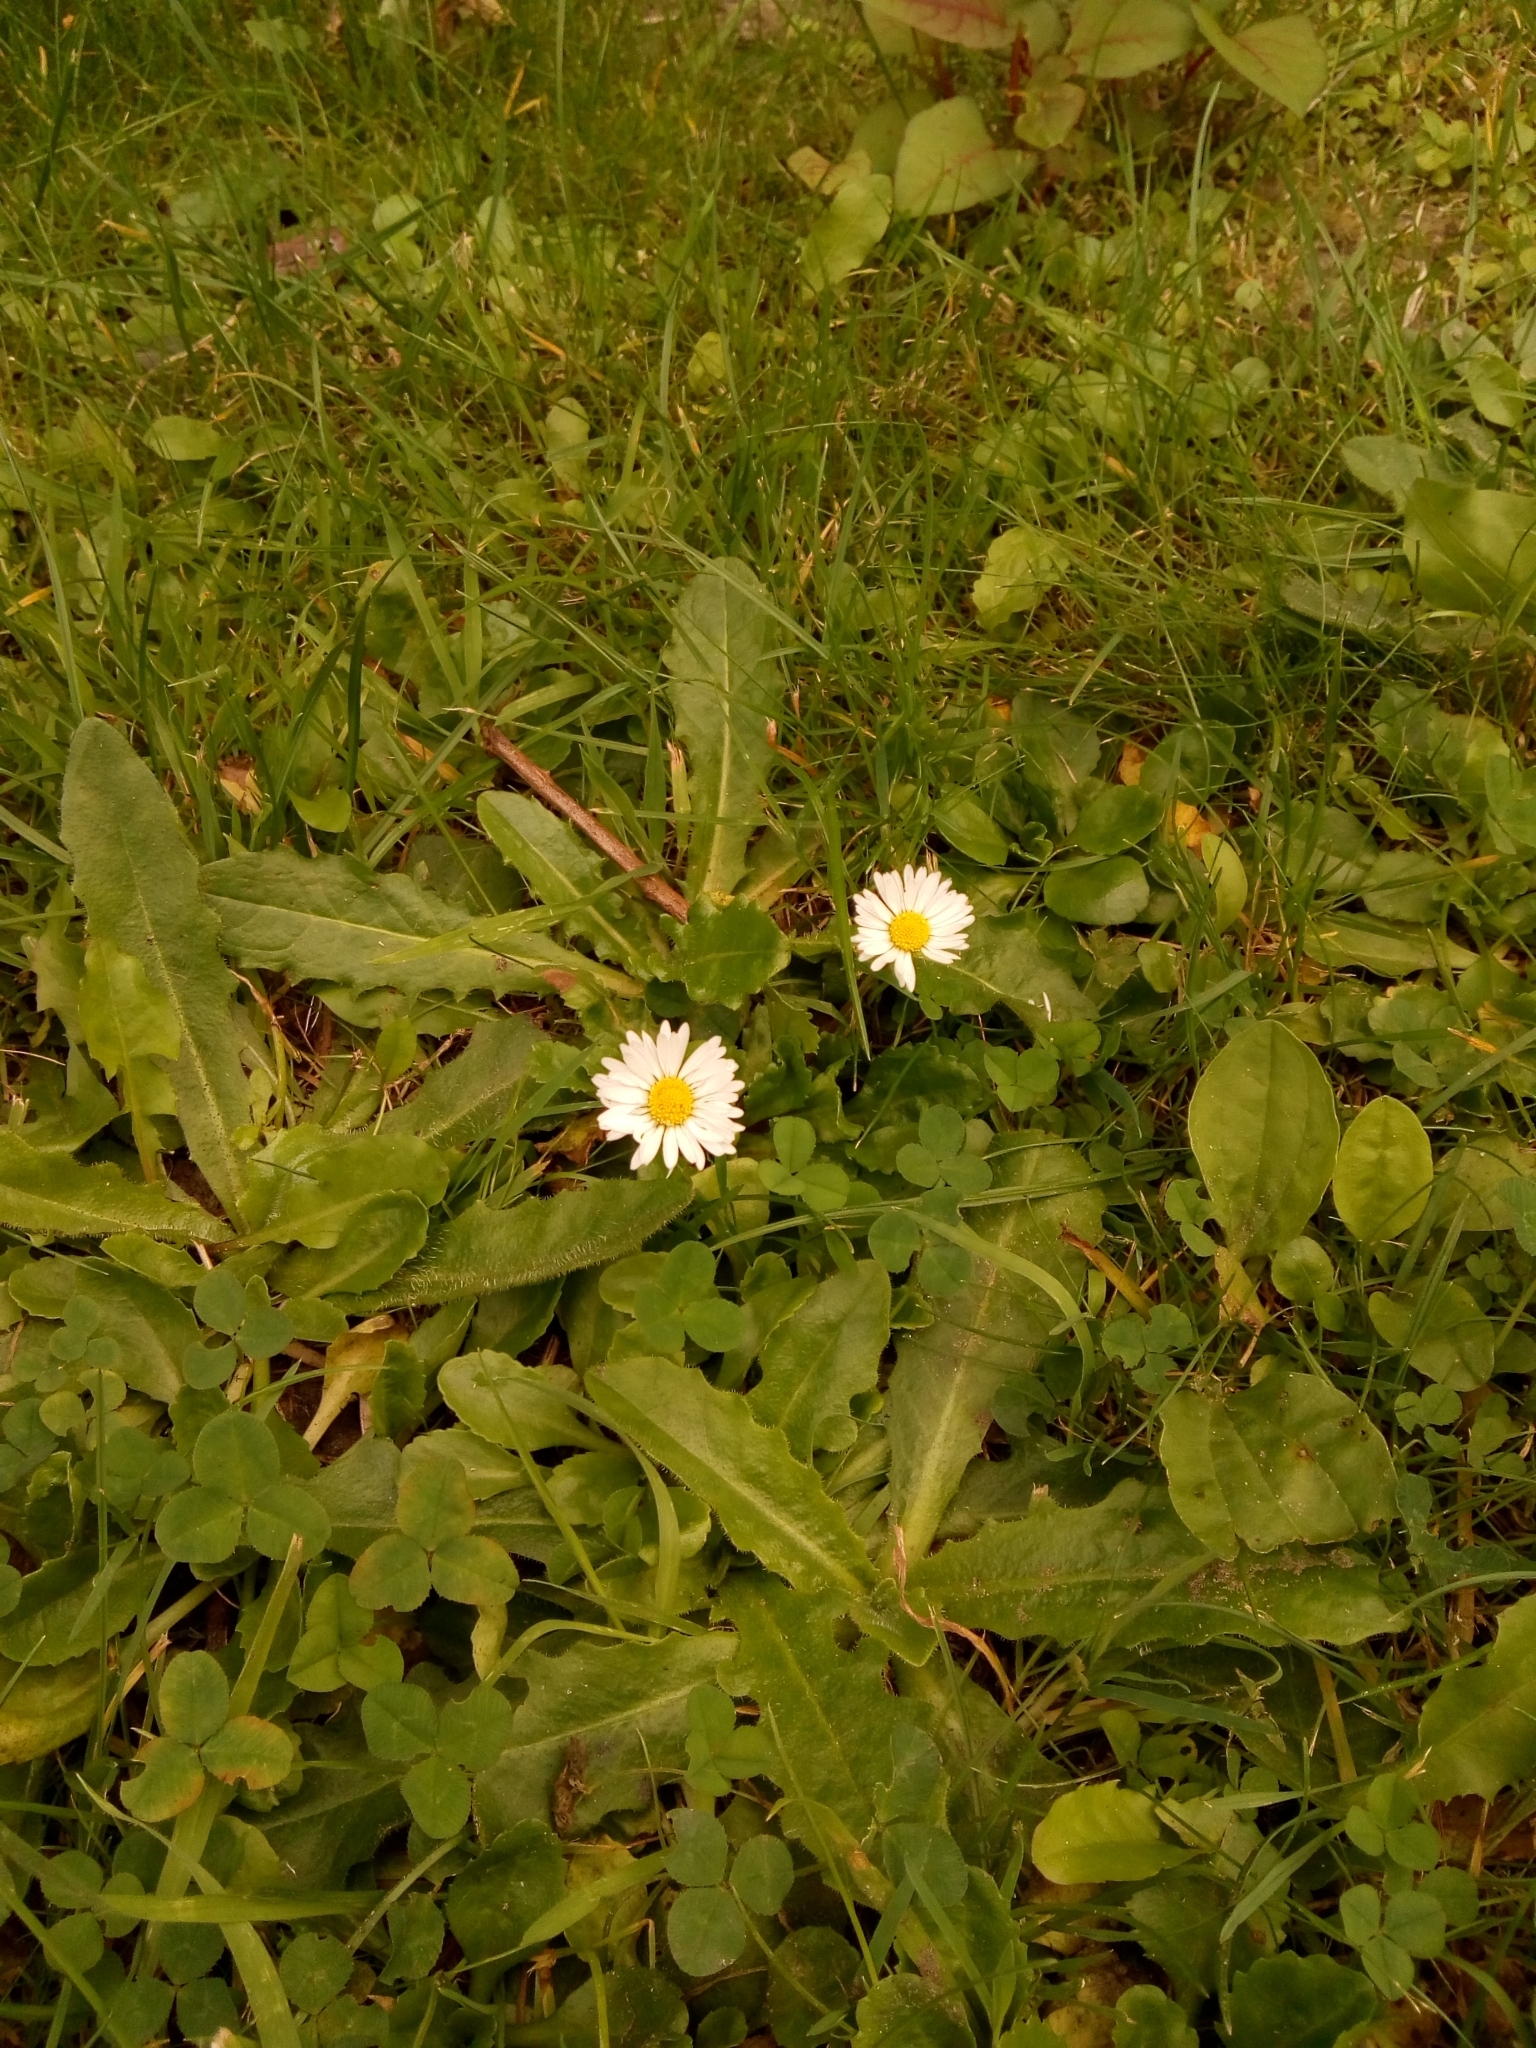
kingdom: Plantae
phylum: Tracheophyta
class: Magnoliopsida
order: Asterales
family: Asteraceae
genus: Bellis
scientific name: Bellis perennis
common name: Lawndaisy
